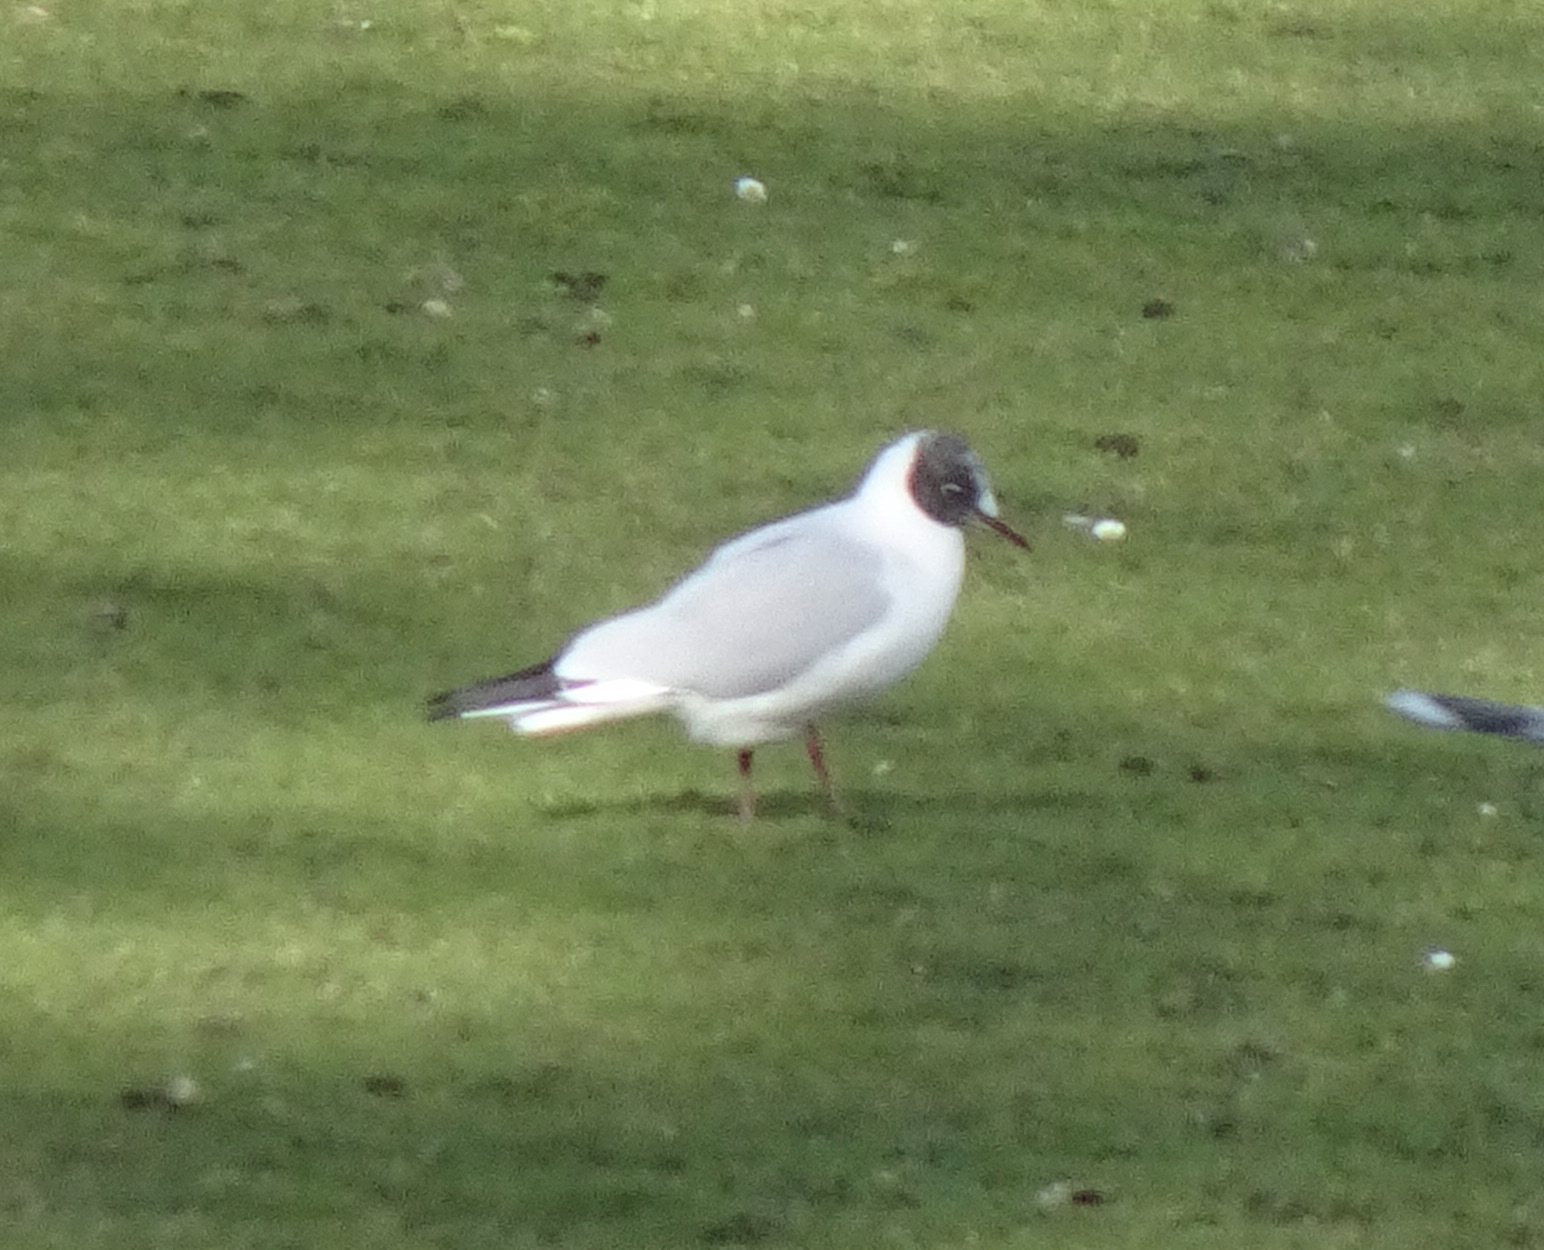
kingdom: Animalia
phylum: Chordata
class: Aves
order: Charadriiformes
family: Laridae
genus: Chroicocephalus
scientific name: Chroicocephalus ridibundus
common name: Black-headed gull
